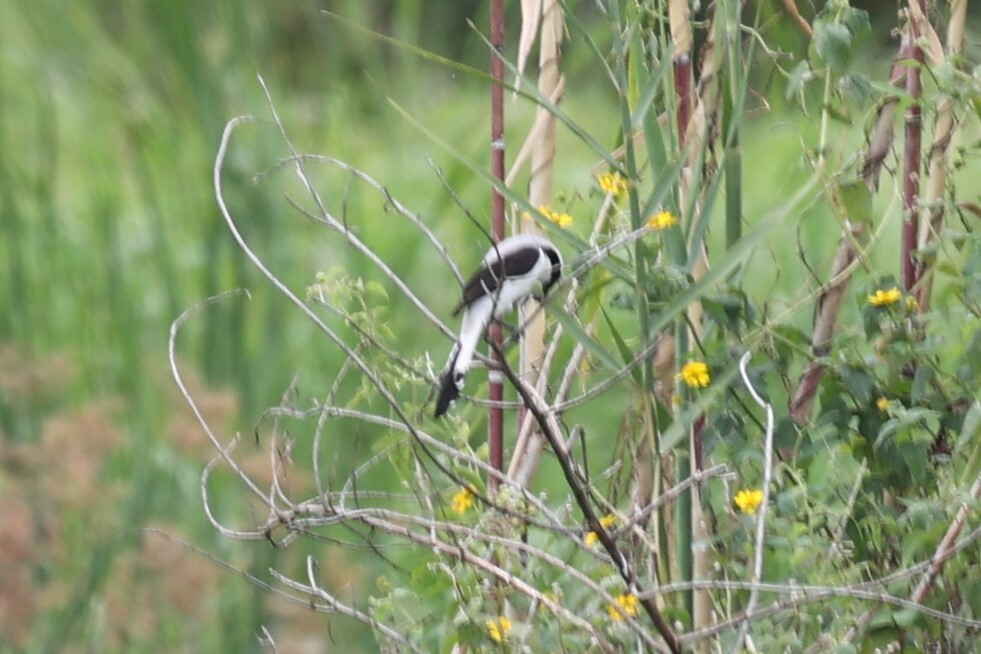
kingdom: Animalia
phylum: Chordata
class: Aves
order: Passeriformes
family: Laniidae
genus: Lanius
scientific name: Lanius excubitoroides
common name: Grey-backed fiscal
